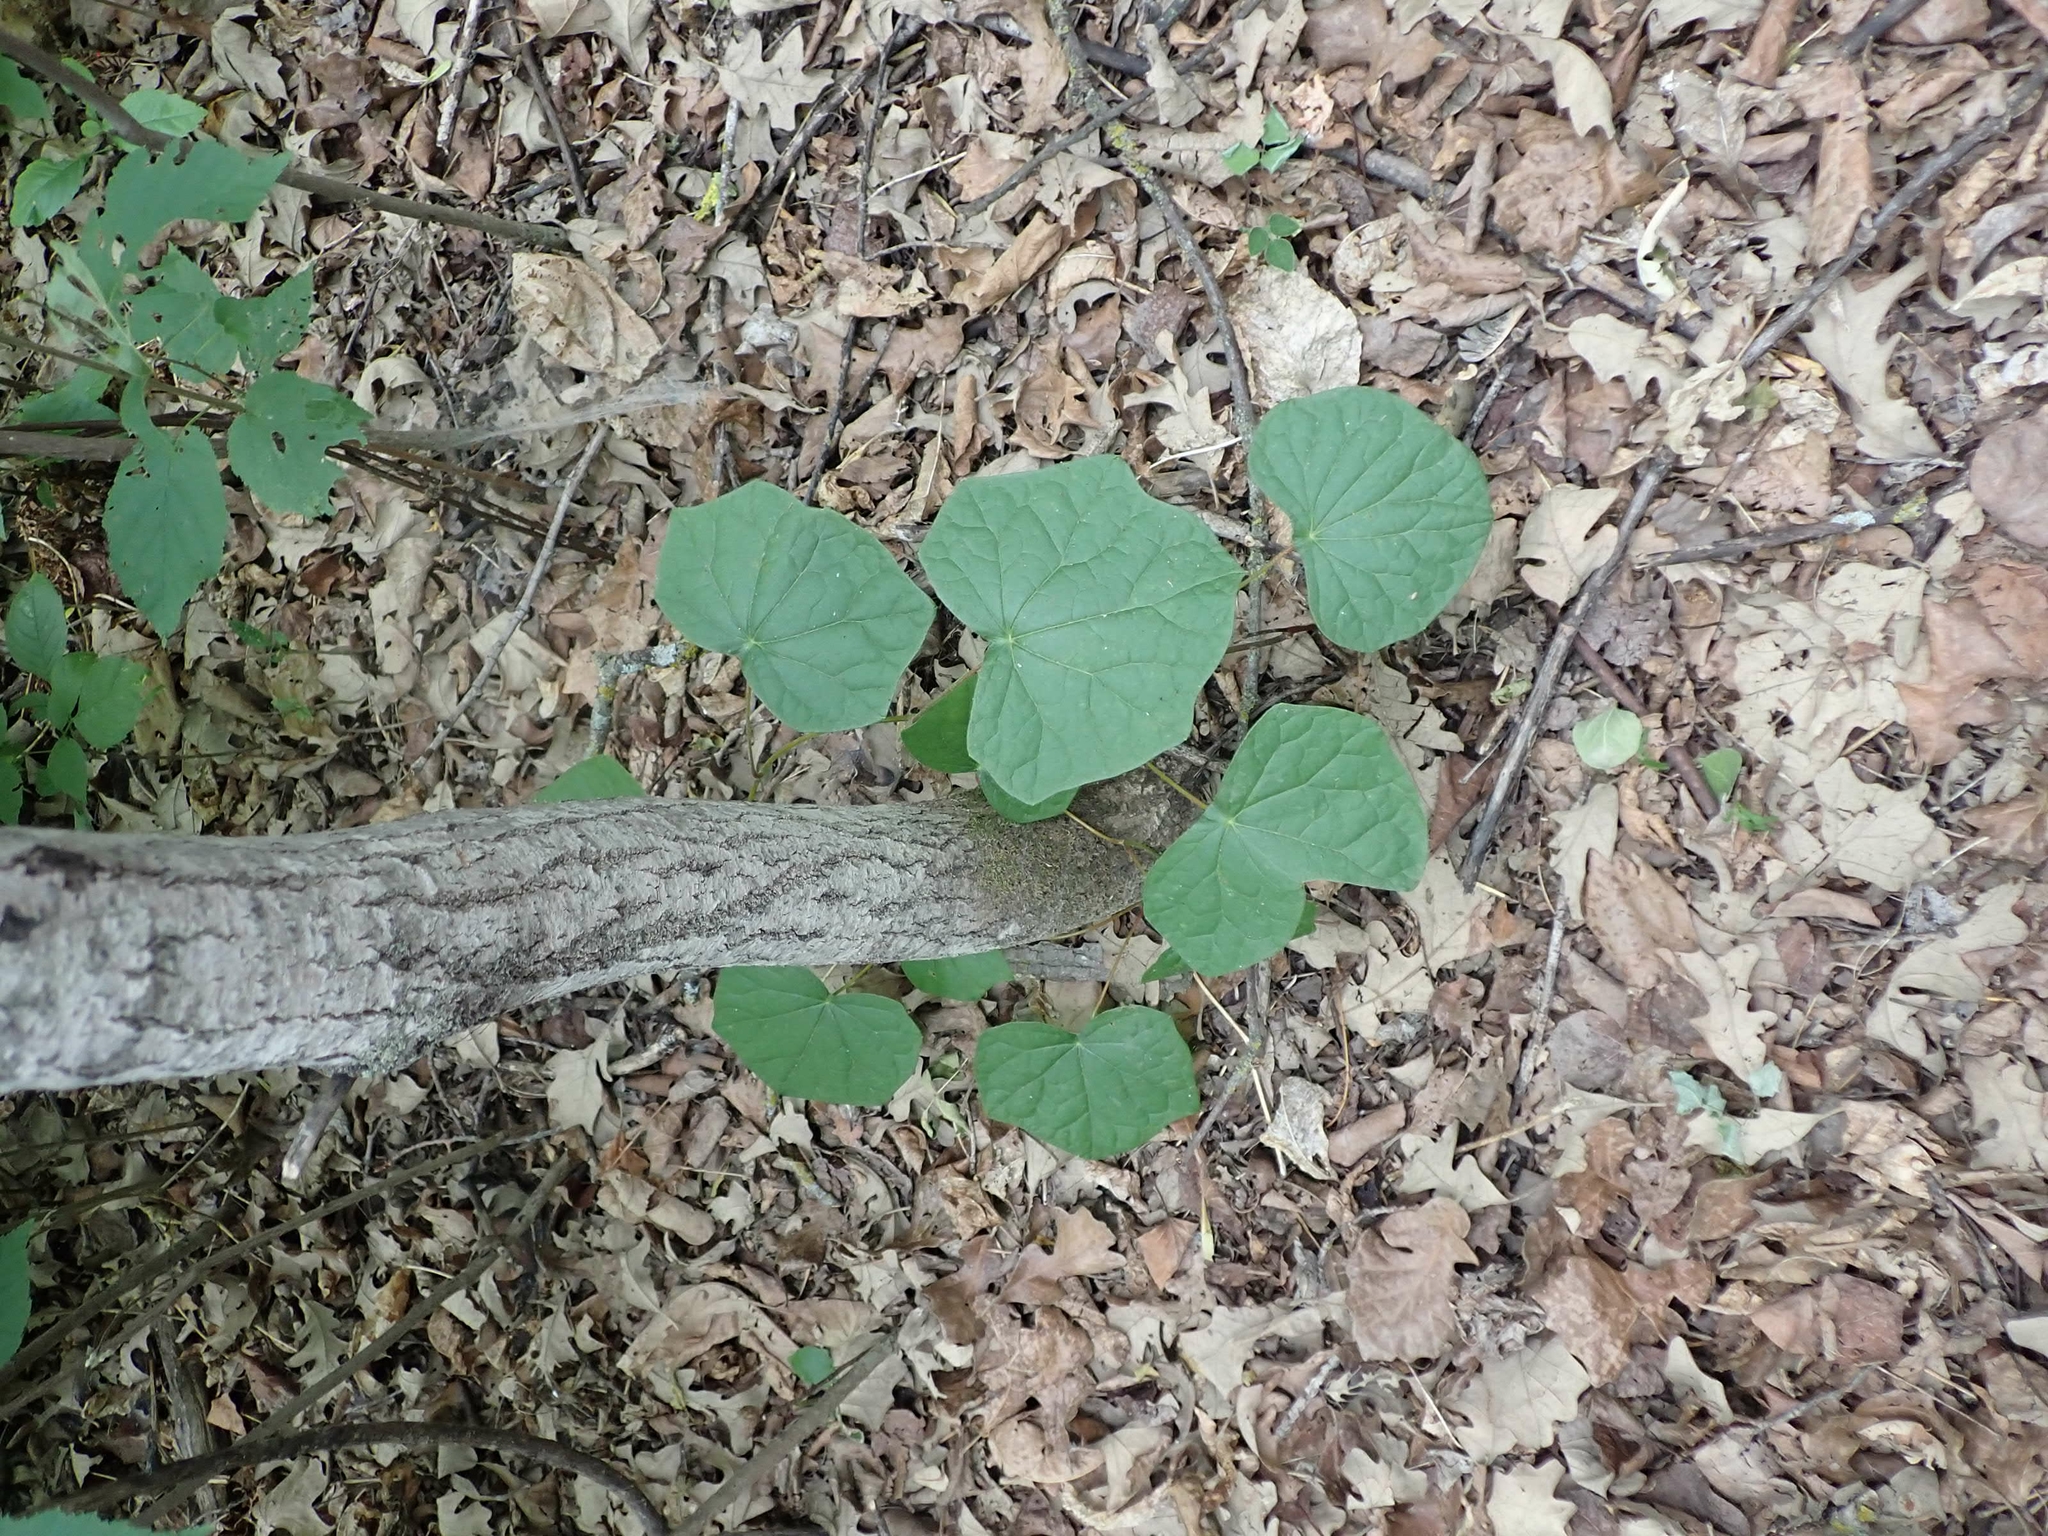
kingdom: Plantae
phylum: Tracheophyta
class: Magnoliopsida
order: Ranunculales
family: Menispermaceae
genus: Menispermum
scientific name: Menispermum canadense
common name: Moonseed
